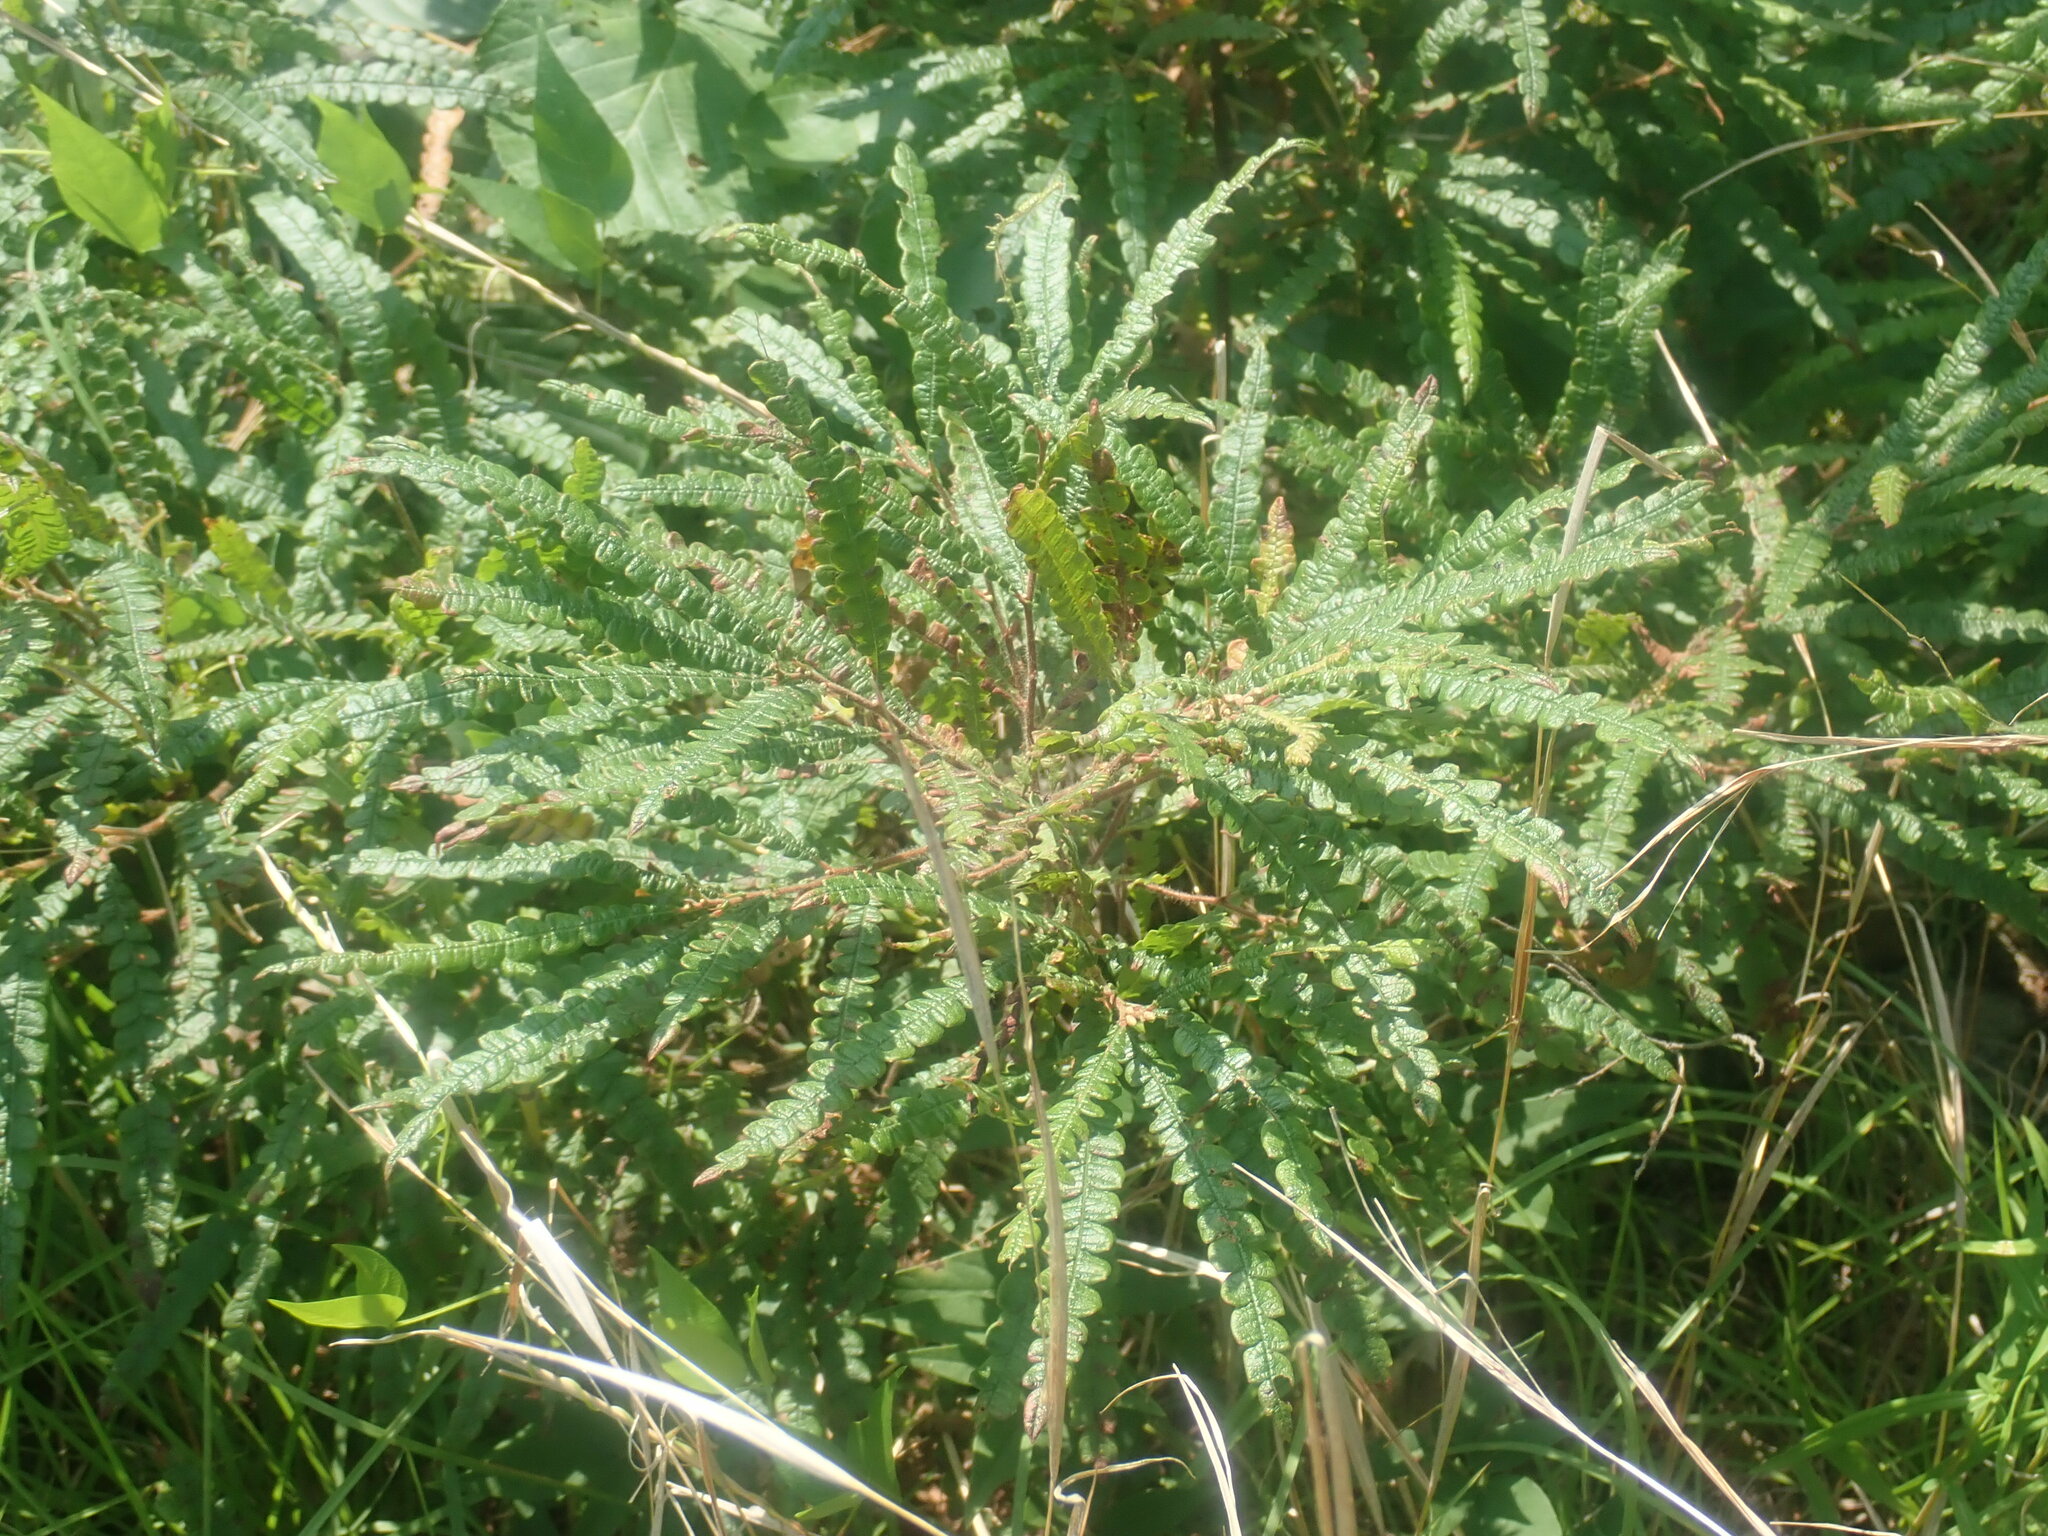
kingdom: Plantae
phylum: Tracheophyta
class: Magnoliopsida
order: Fagales
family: Myricaceae
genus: Comptonia
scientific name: Comptonia peregrina
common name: Sweet-fern
